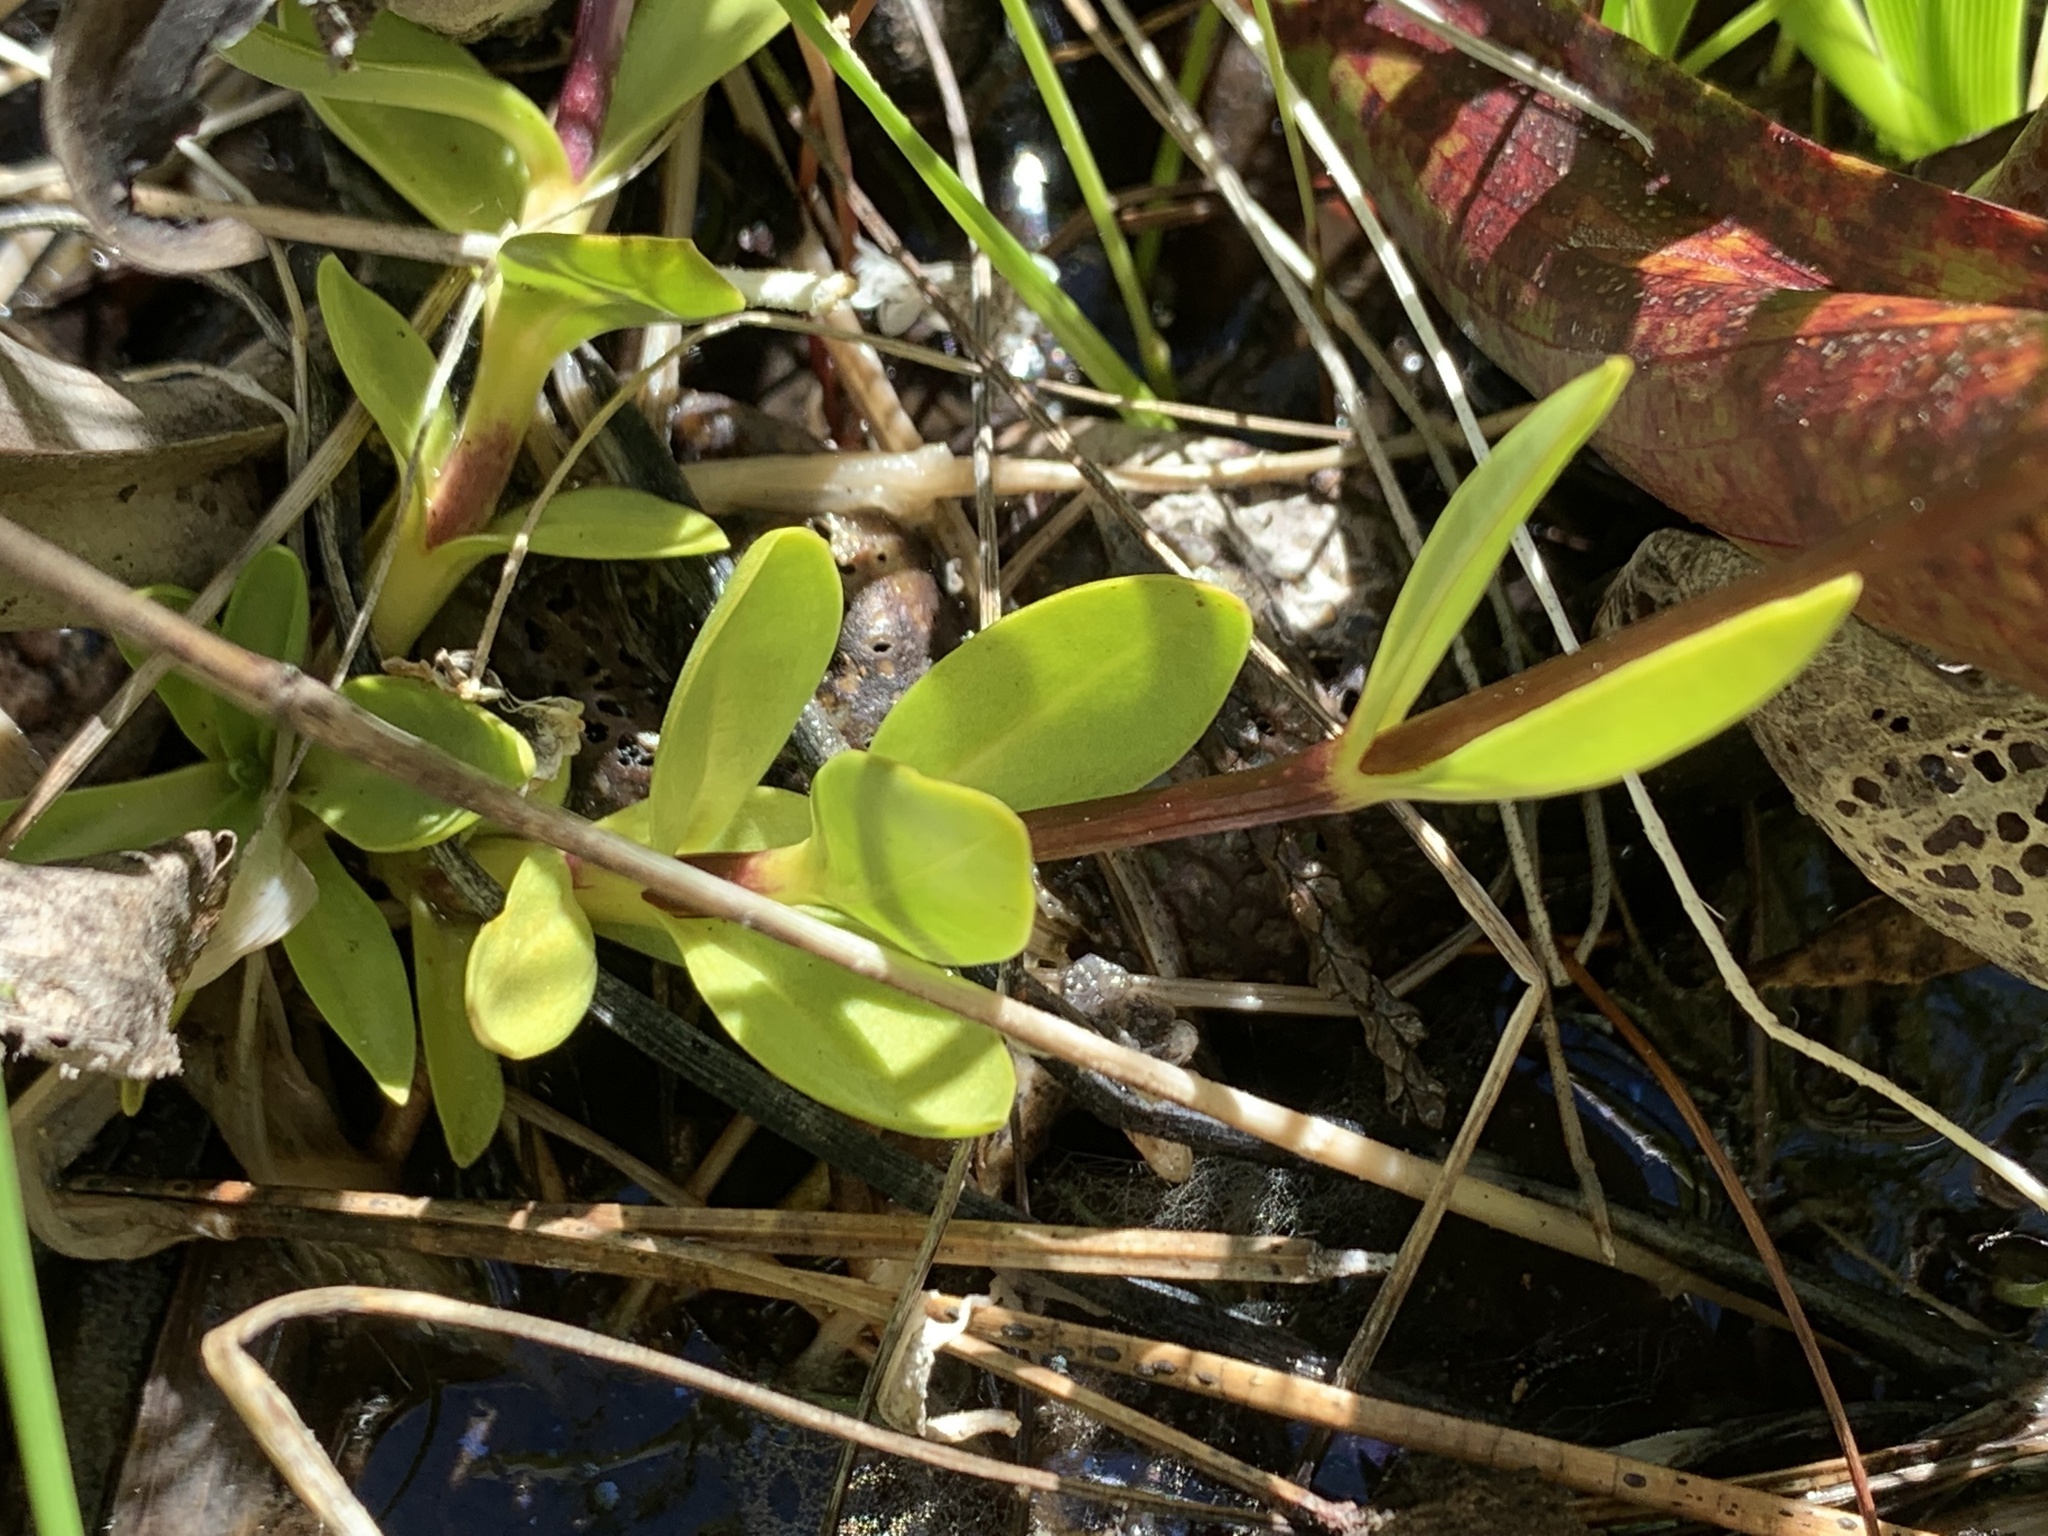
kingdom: Plantae
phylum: Tracheophyta
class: Magnoliopsida
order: Gentianales
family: Gentianaceae
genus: Gentiana
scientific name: Gentiana setigera
